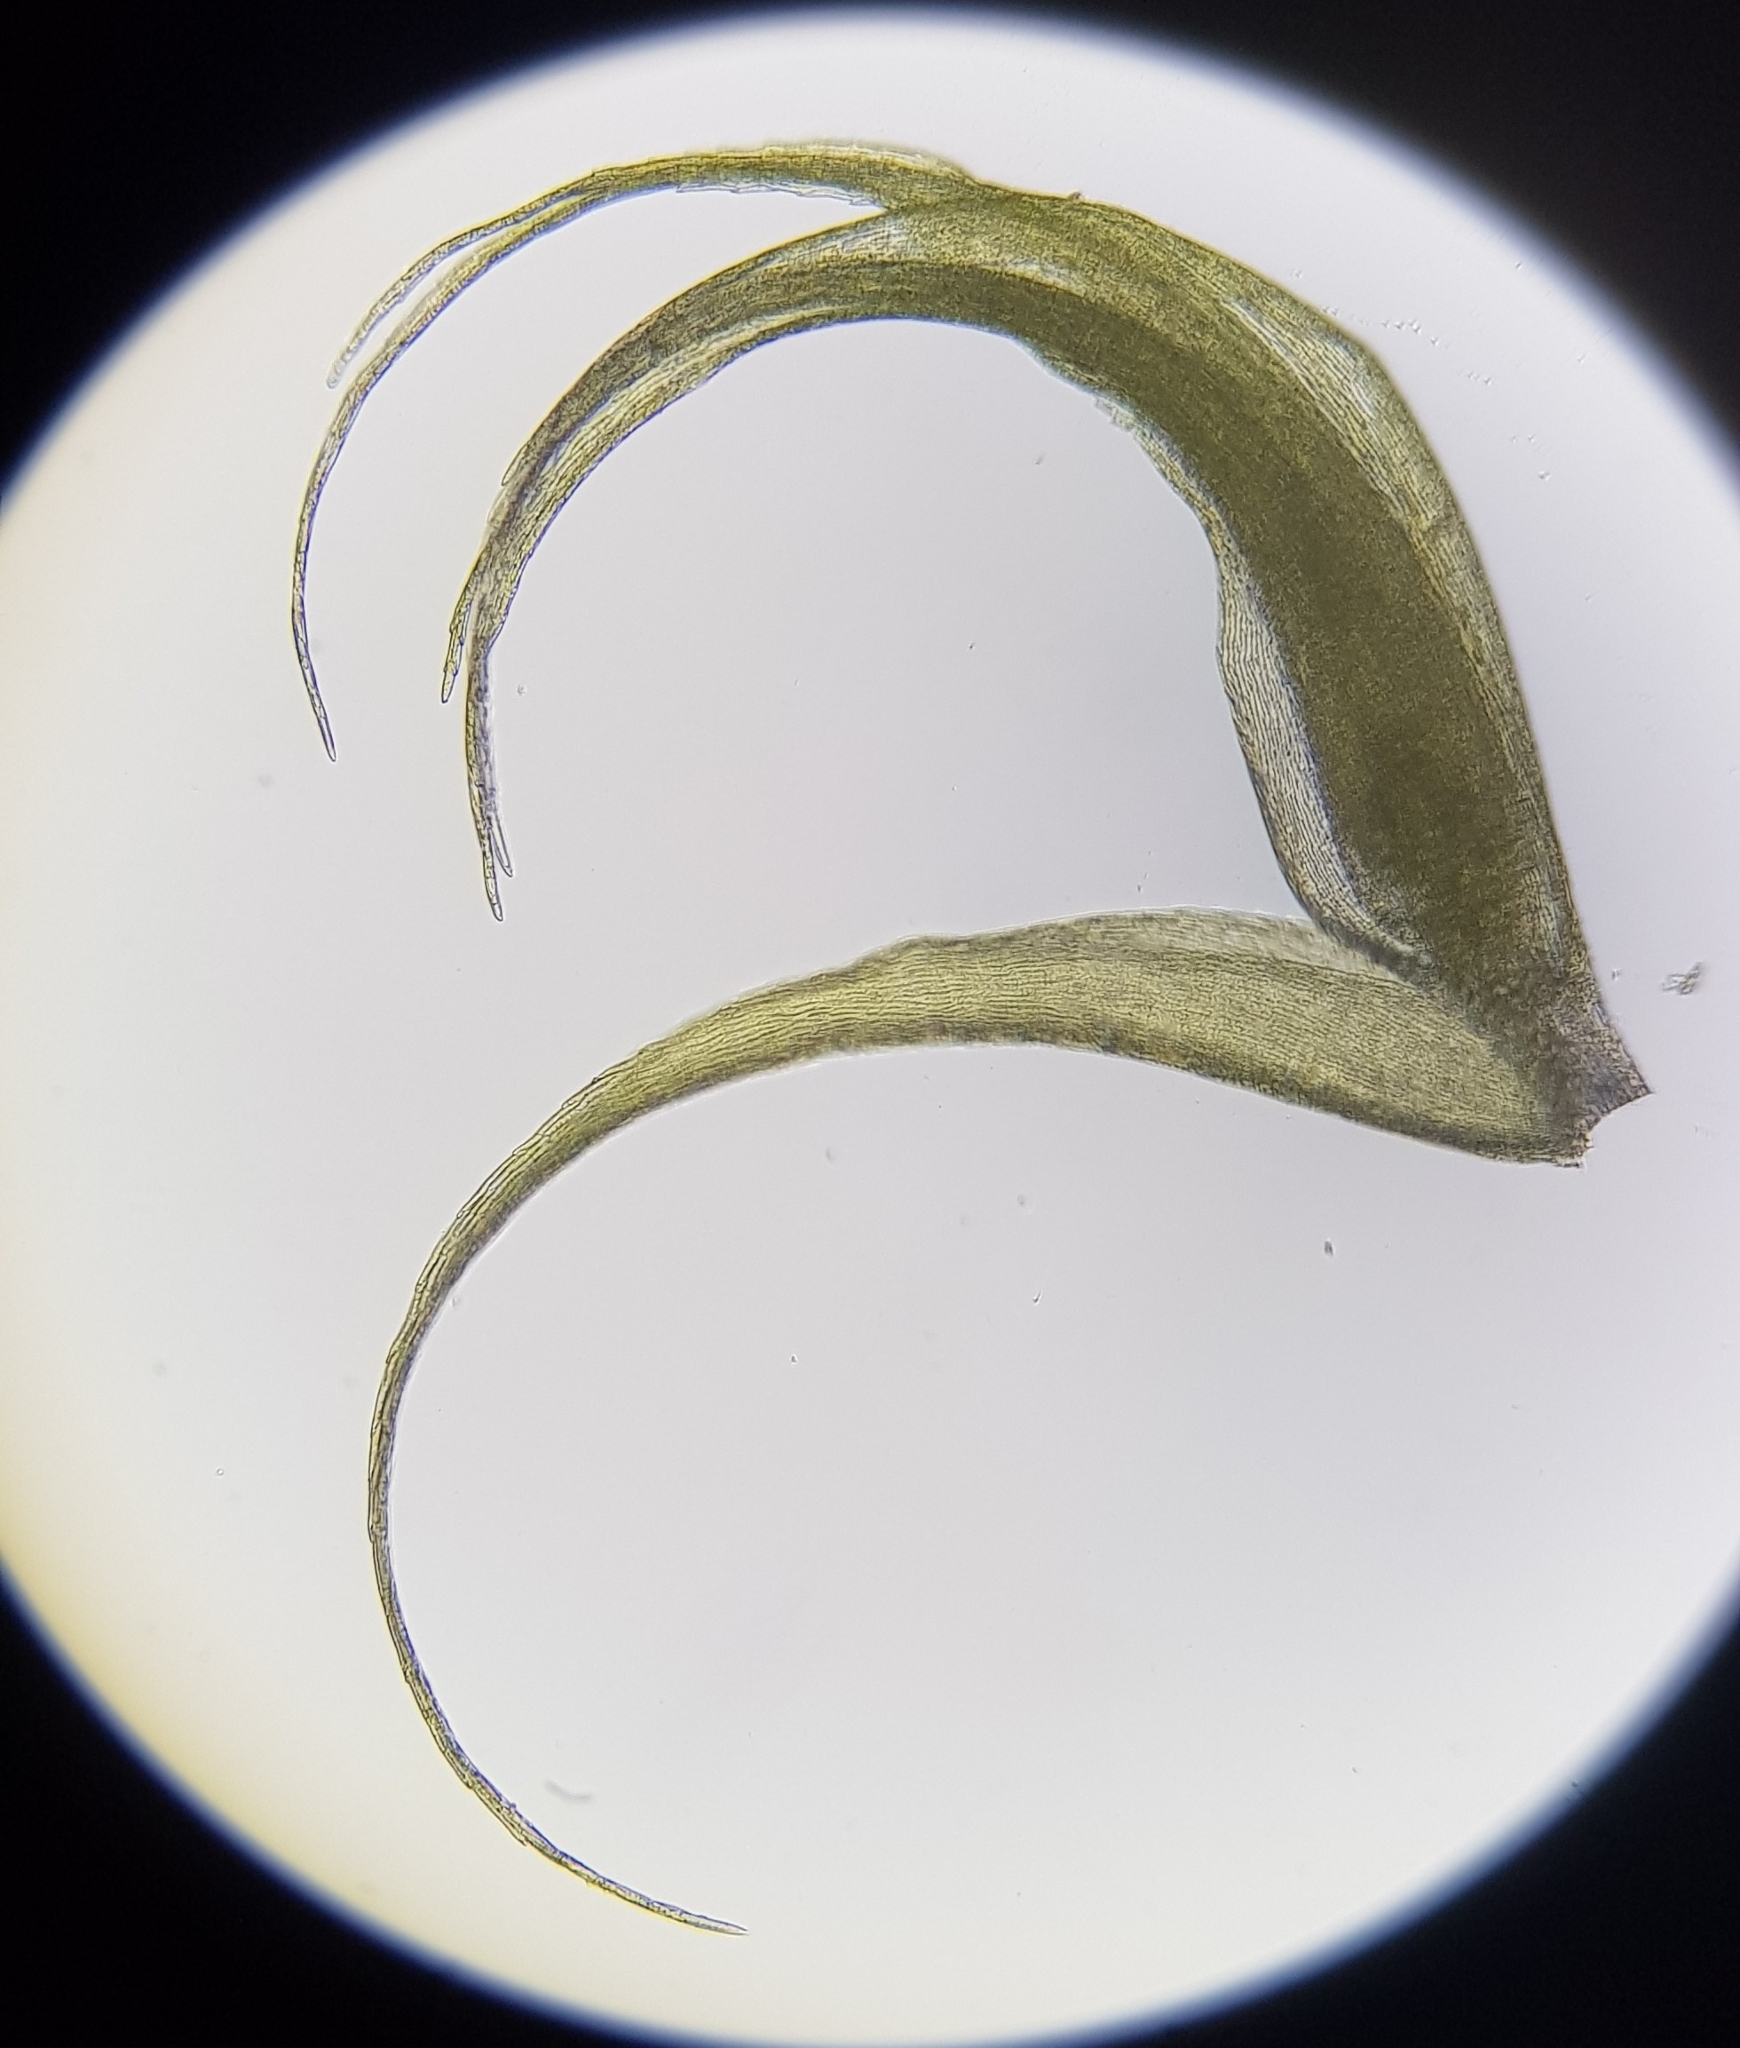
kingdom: Plantae
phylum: Bryophyta
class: Bryopsida
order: Hypnales
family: Scorpidiaceae
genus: Sanionia
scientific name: Sanionia uncinata
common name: Sickle moss
